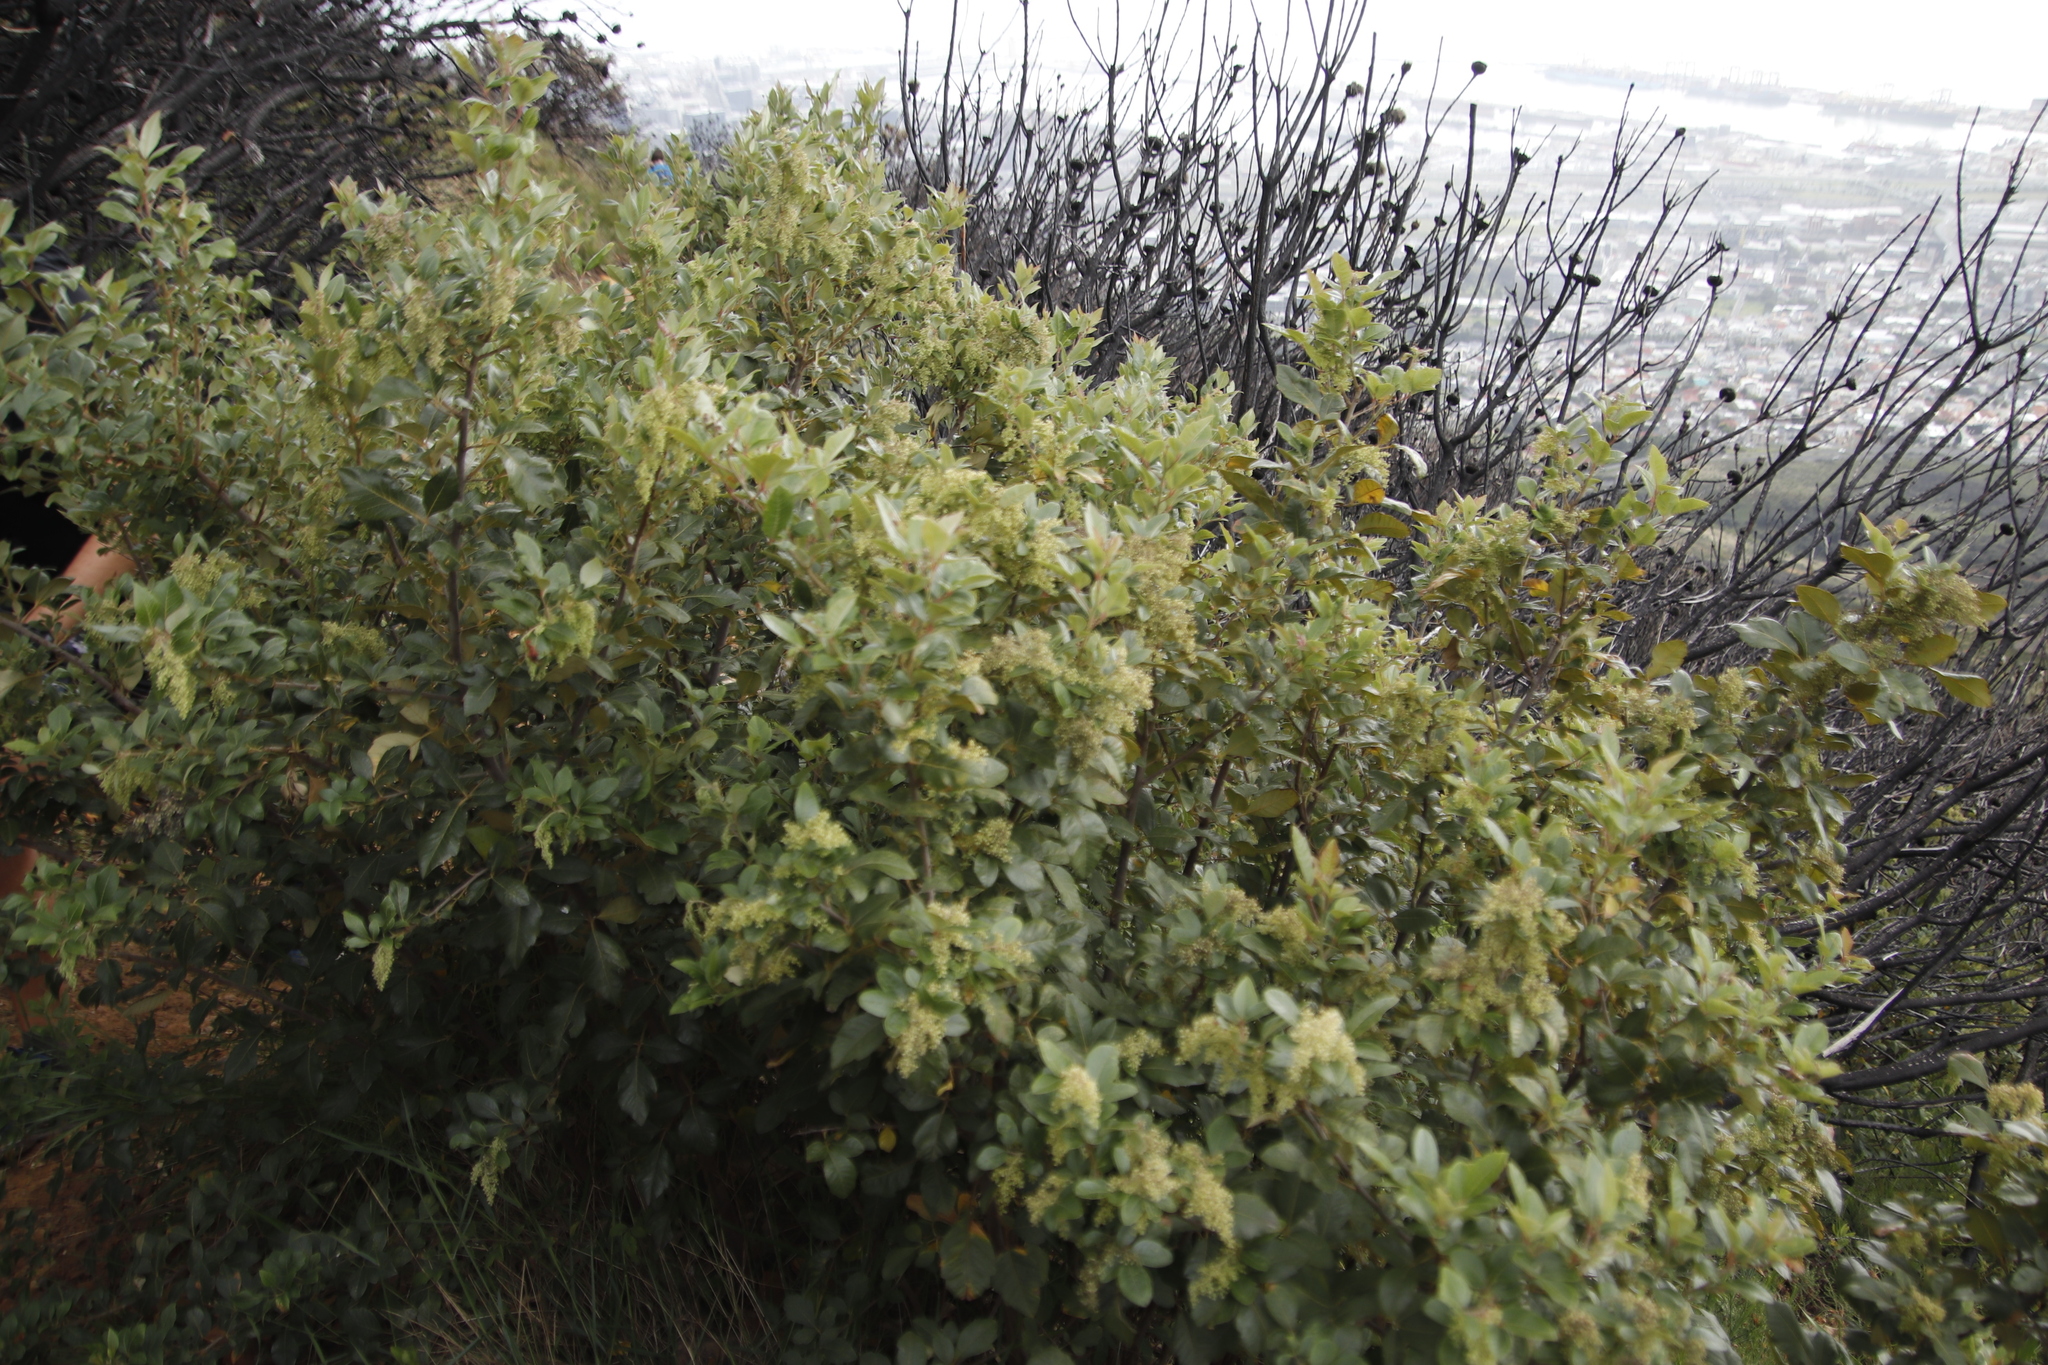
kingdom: Plantae
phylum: Tracheophyta
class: Magnoliopsida
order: Sapindales
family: Anacardiaceae
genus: Searsia
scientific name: Searsia tomentosa
